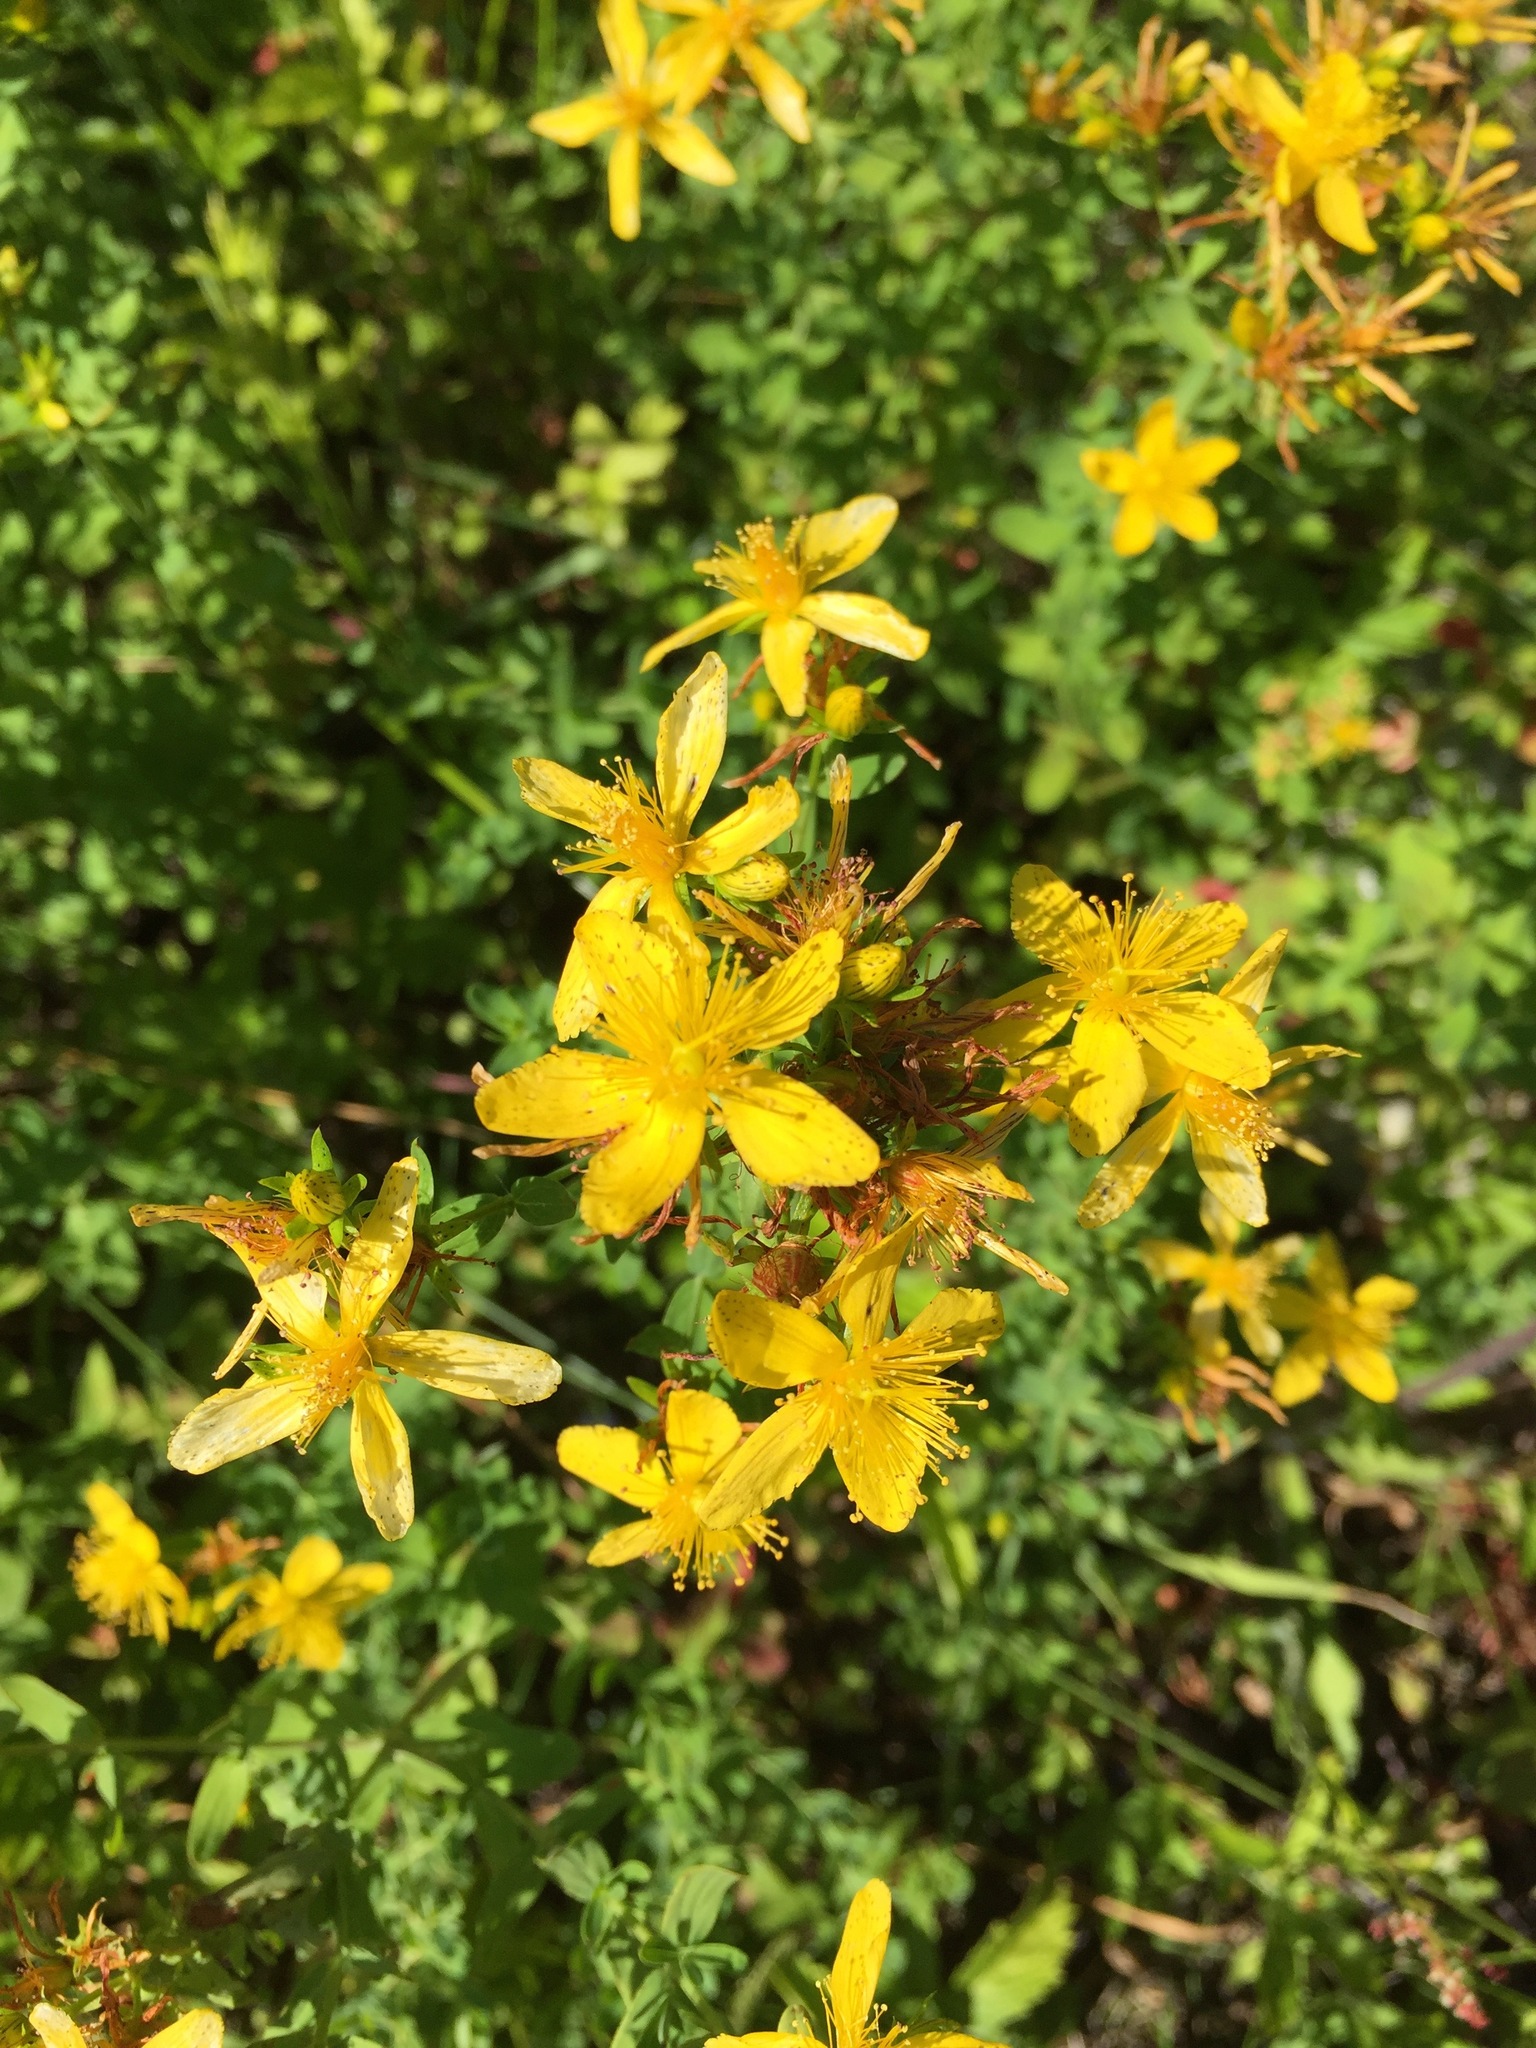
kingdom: Plantae
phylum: Tracheophyta
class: Magnoliopsida
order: Malpighiales
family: Hypericaceae
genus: Hypericum
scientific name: Hypericum perforatum
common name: Common st. johnswort
